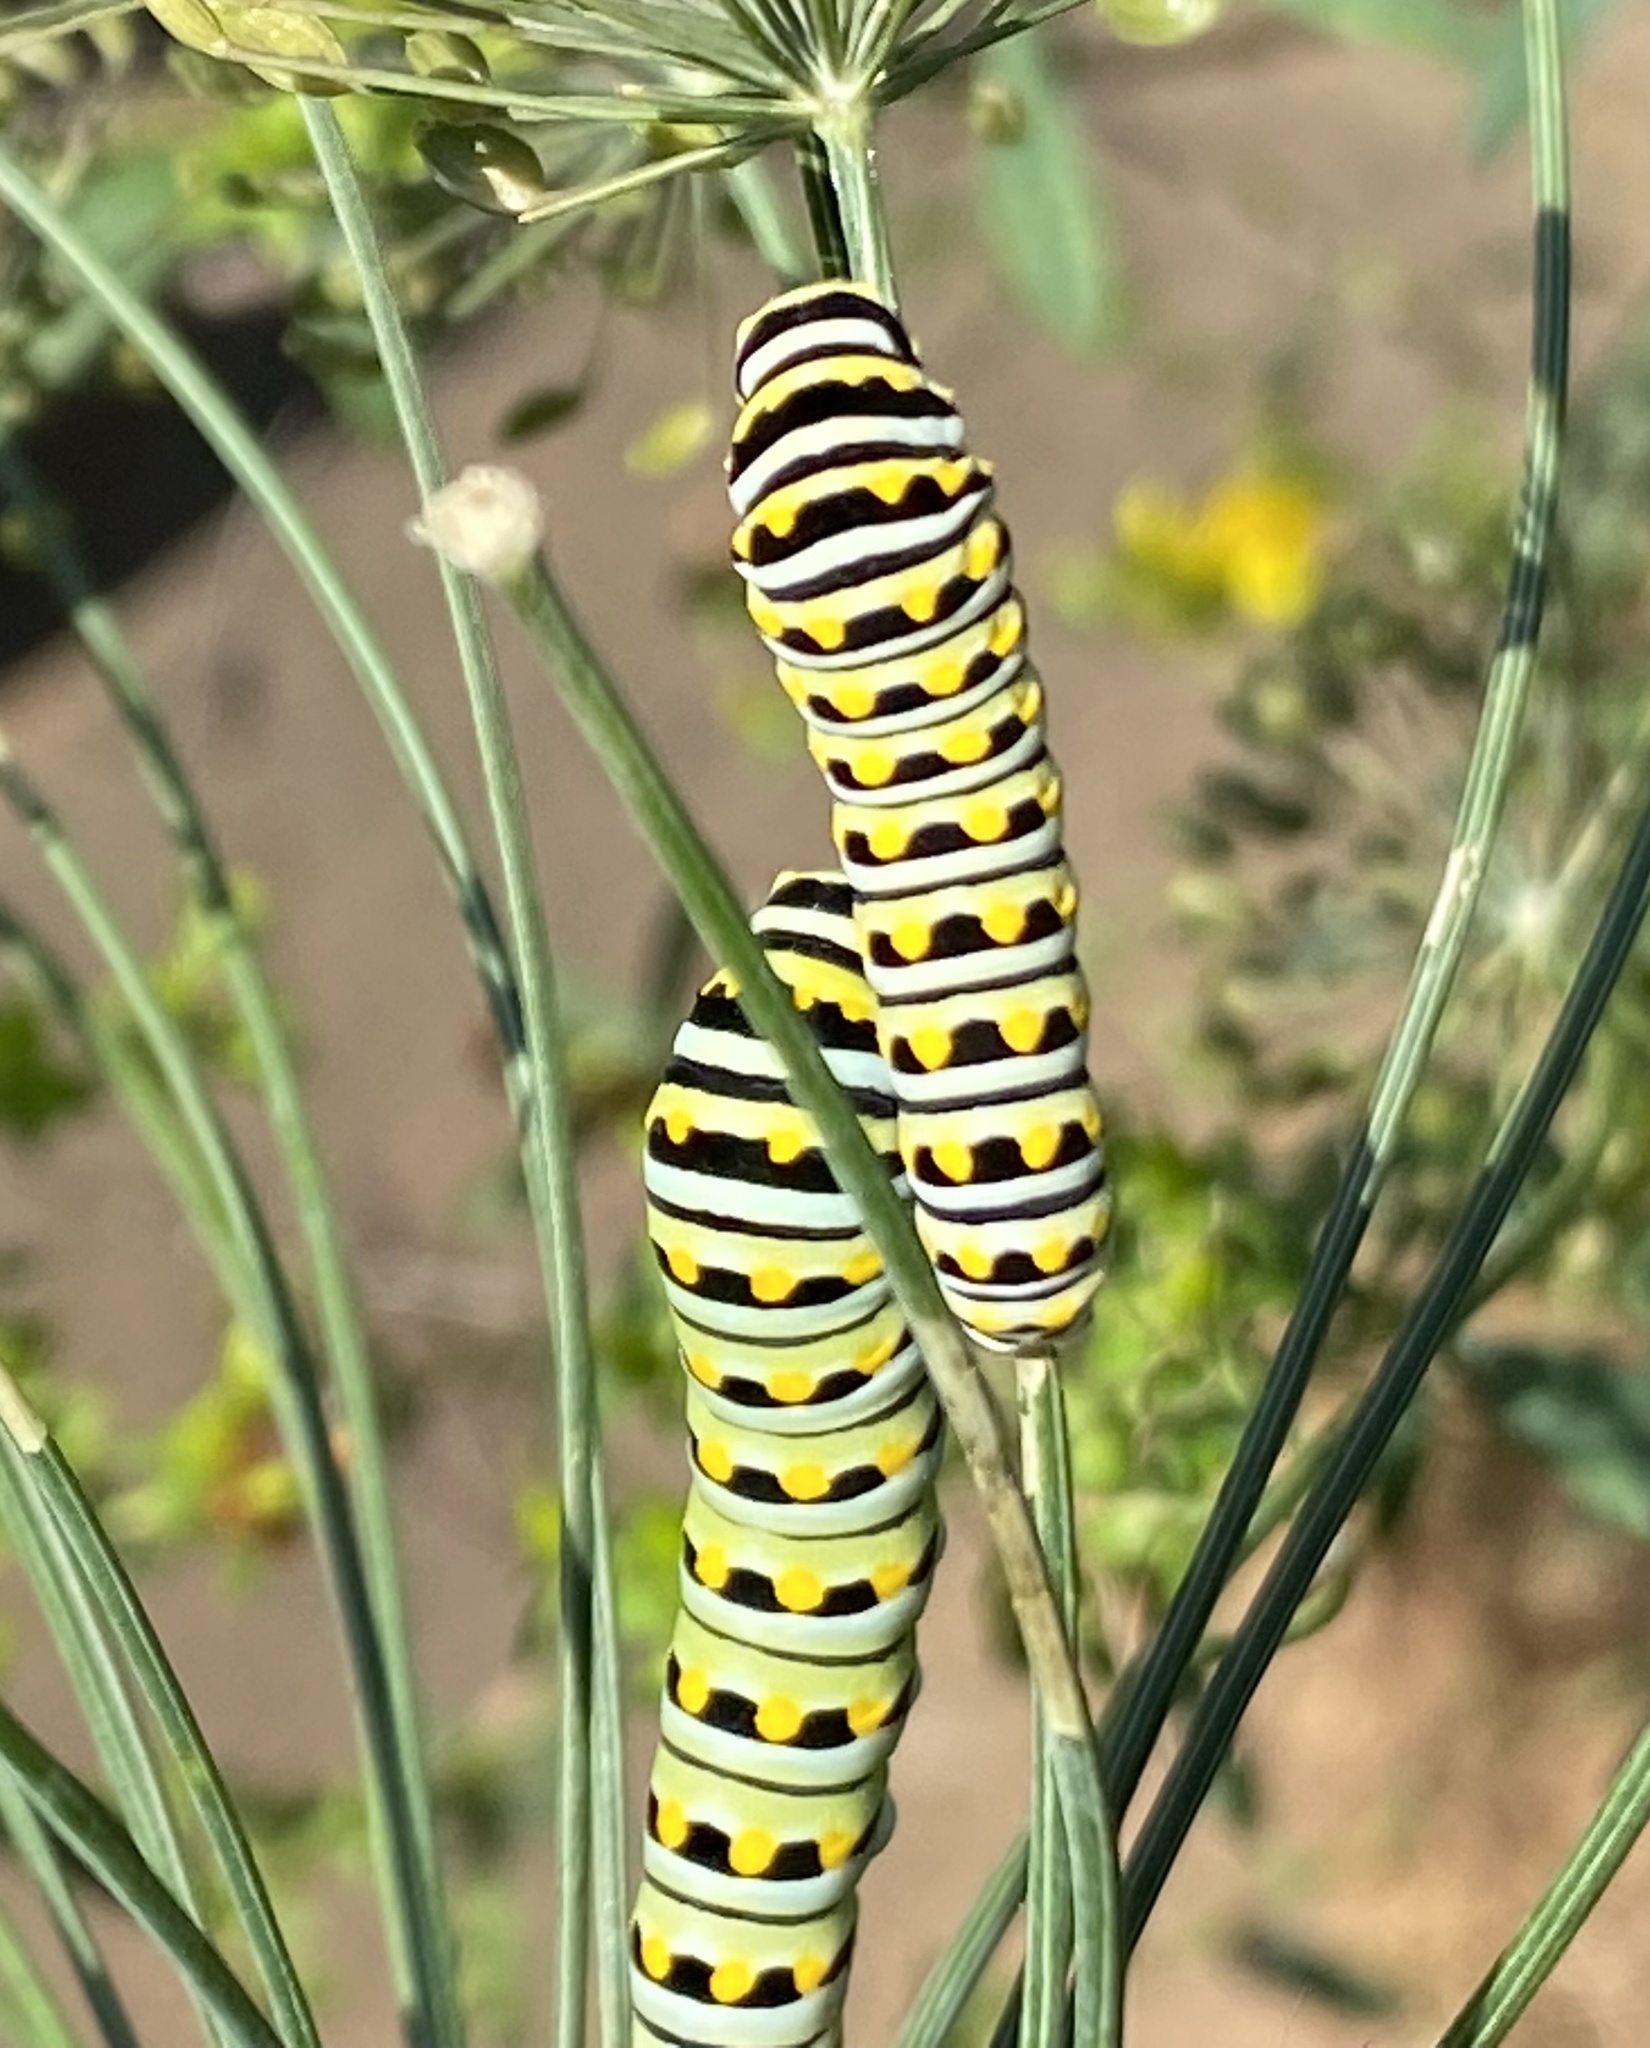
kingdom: Animalia
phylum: Arthropoda
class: Insecta
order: Lepidoptera
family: Papilionidae
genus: Papilio
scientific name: Papilio polyxenes
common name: Black swallowtail
